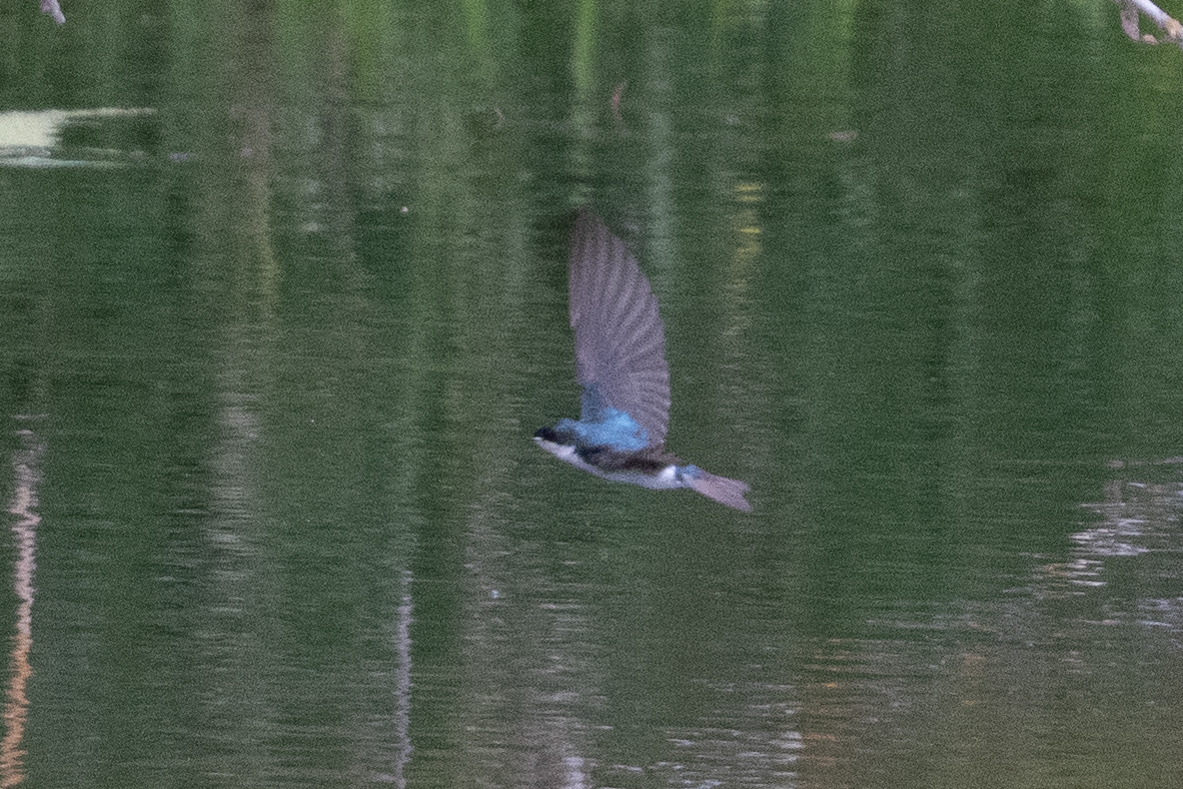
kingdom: Animalia
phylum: Chordata
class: Aves
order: Passeriformes
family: Hirundinidae
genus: Tachycineta
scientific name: Tachycineta bicolor
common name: Tree swallow
